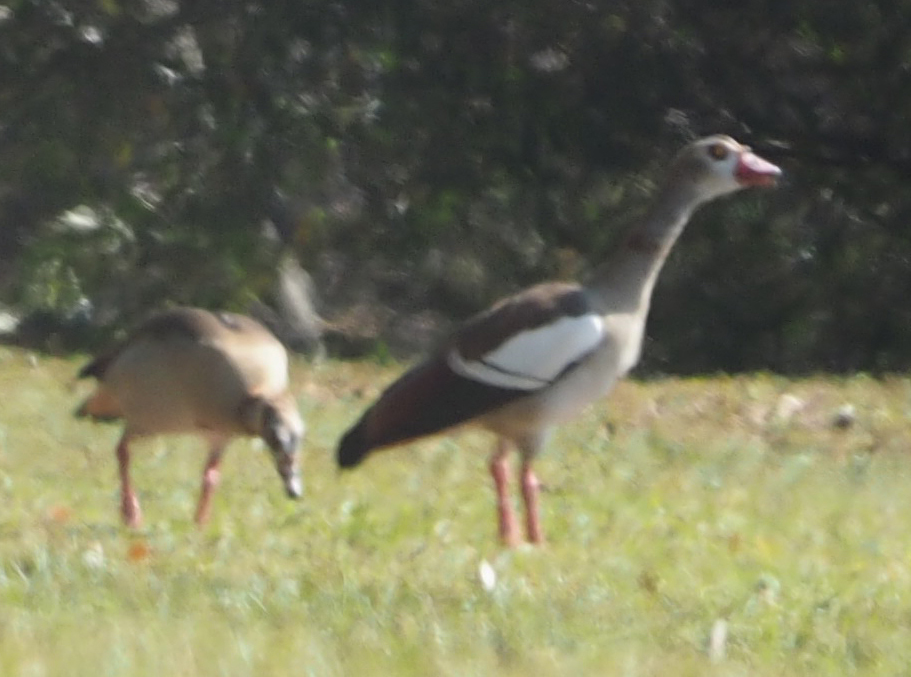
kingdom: Animalia
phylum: Chordata
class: Aves
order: Anseriformes
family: Anatidae
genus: Alopochen
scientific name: Alopochen aegyptiaca
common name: Egyptian goose
